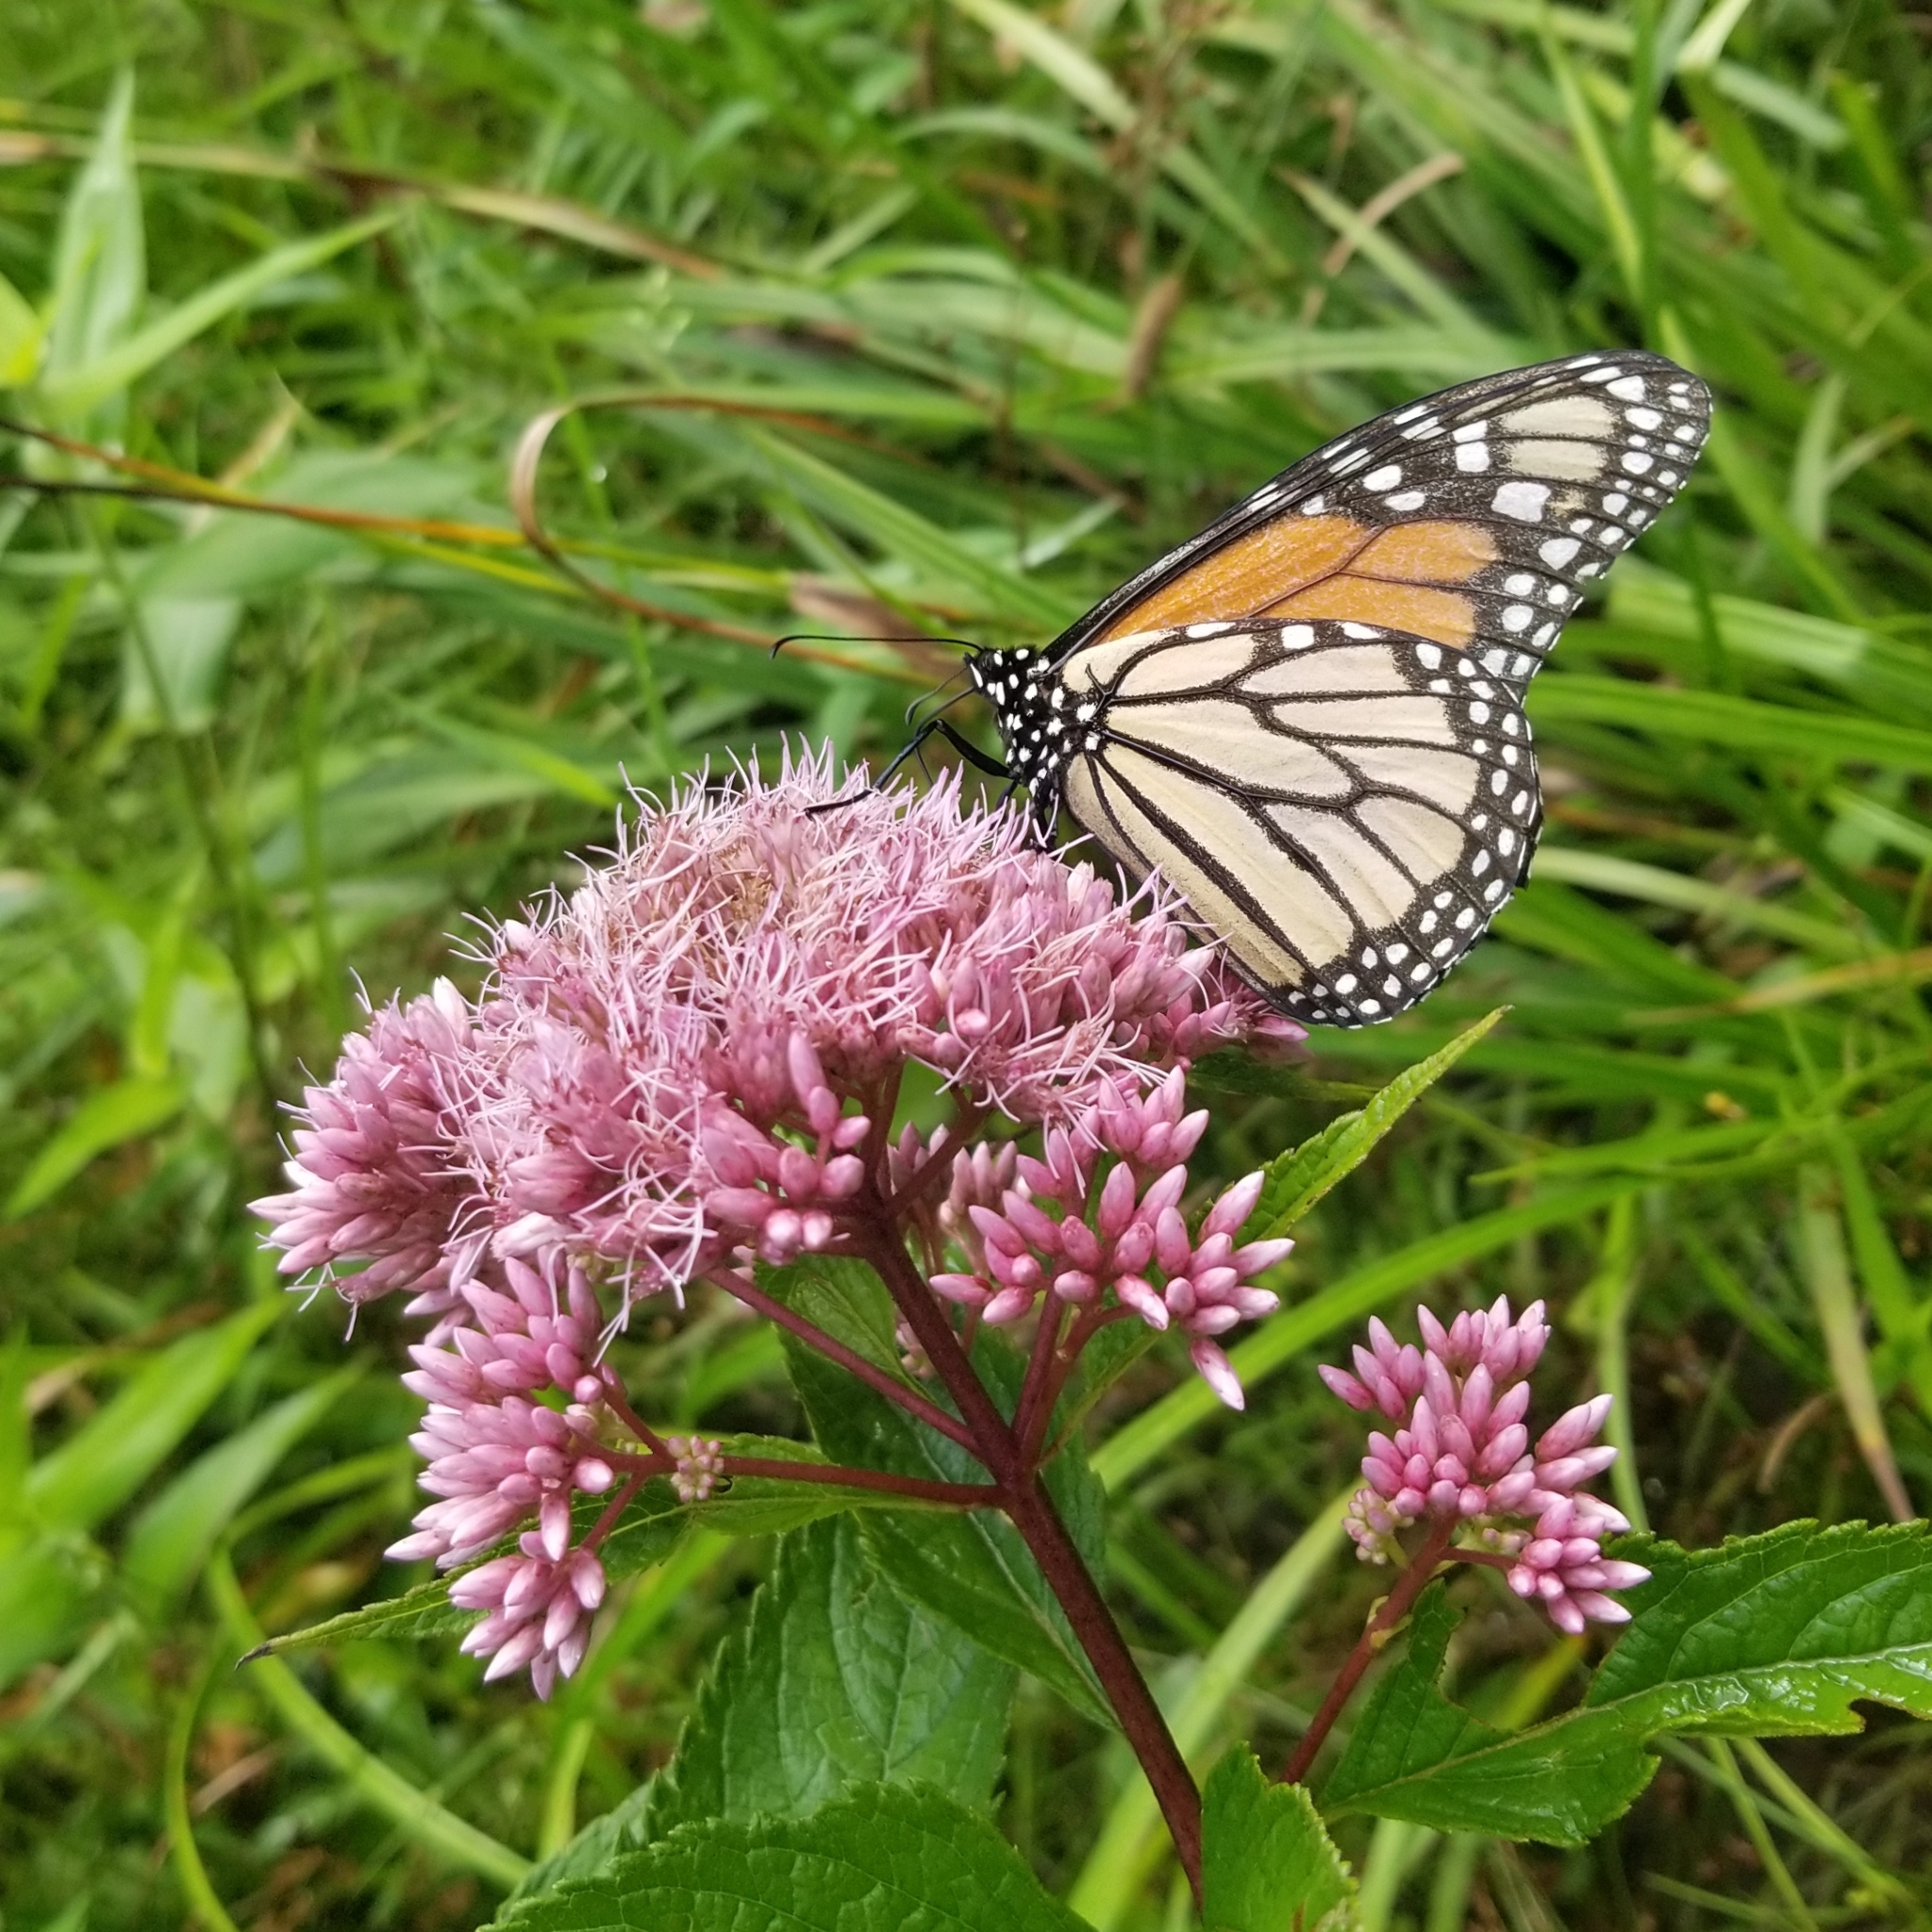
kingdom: Animalia
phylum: Arthropoda
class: Insecta
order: Lepidoptera
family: Nymphalidae
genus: Danaus
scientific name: Danaus plexippus
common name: Monarch
